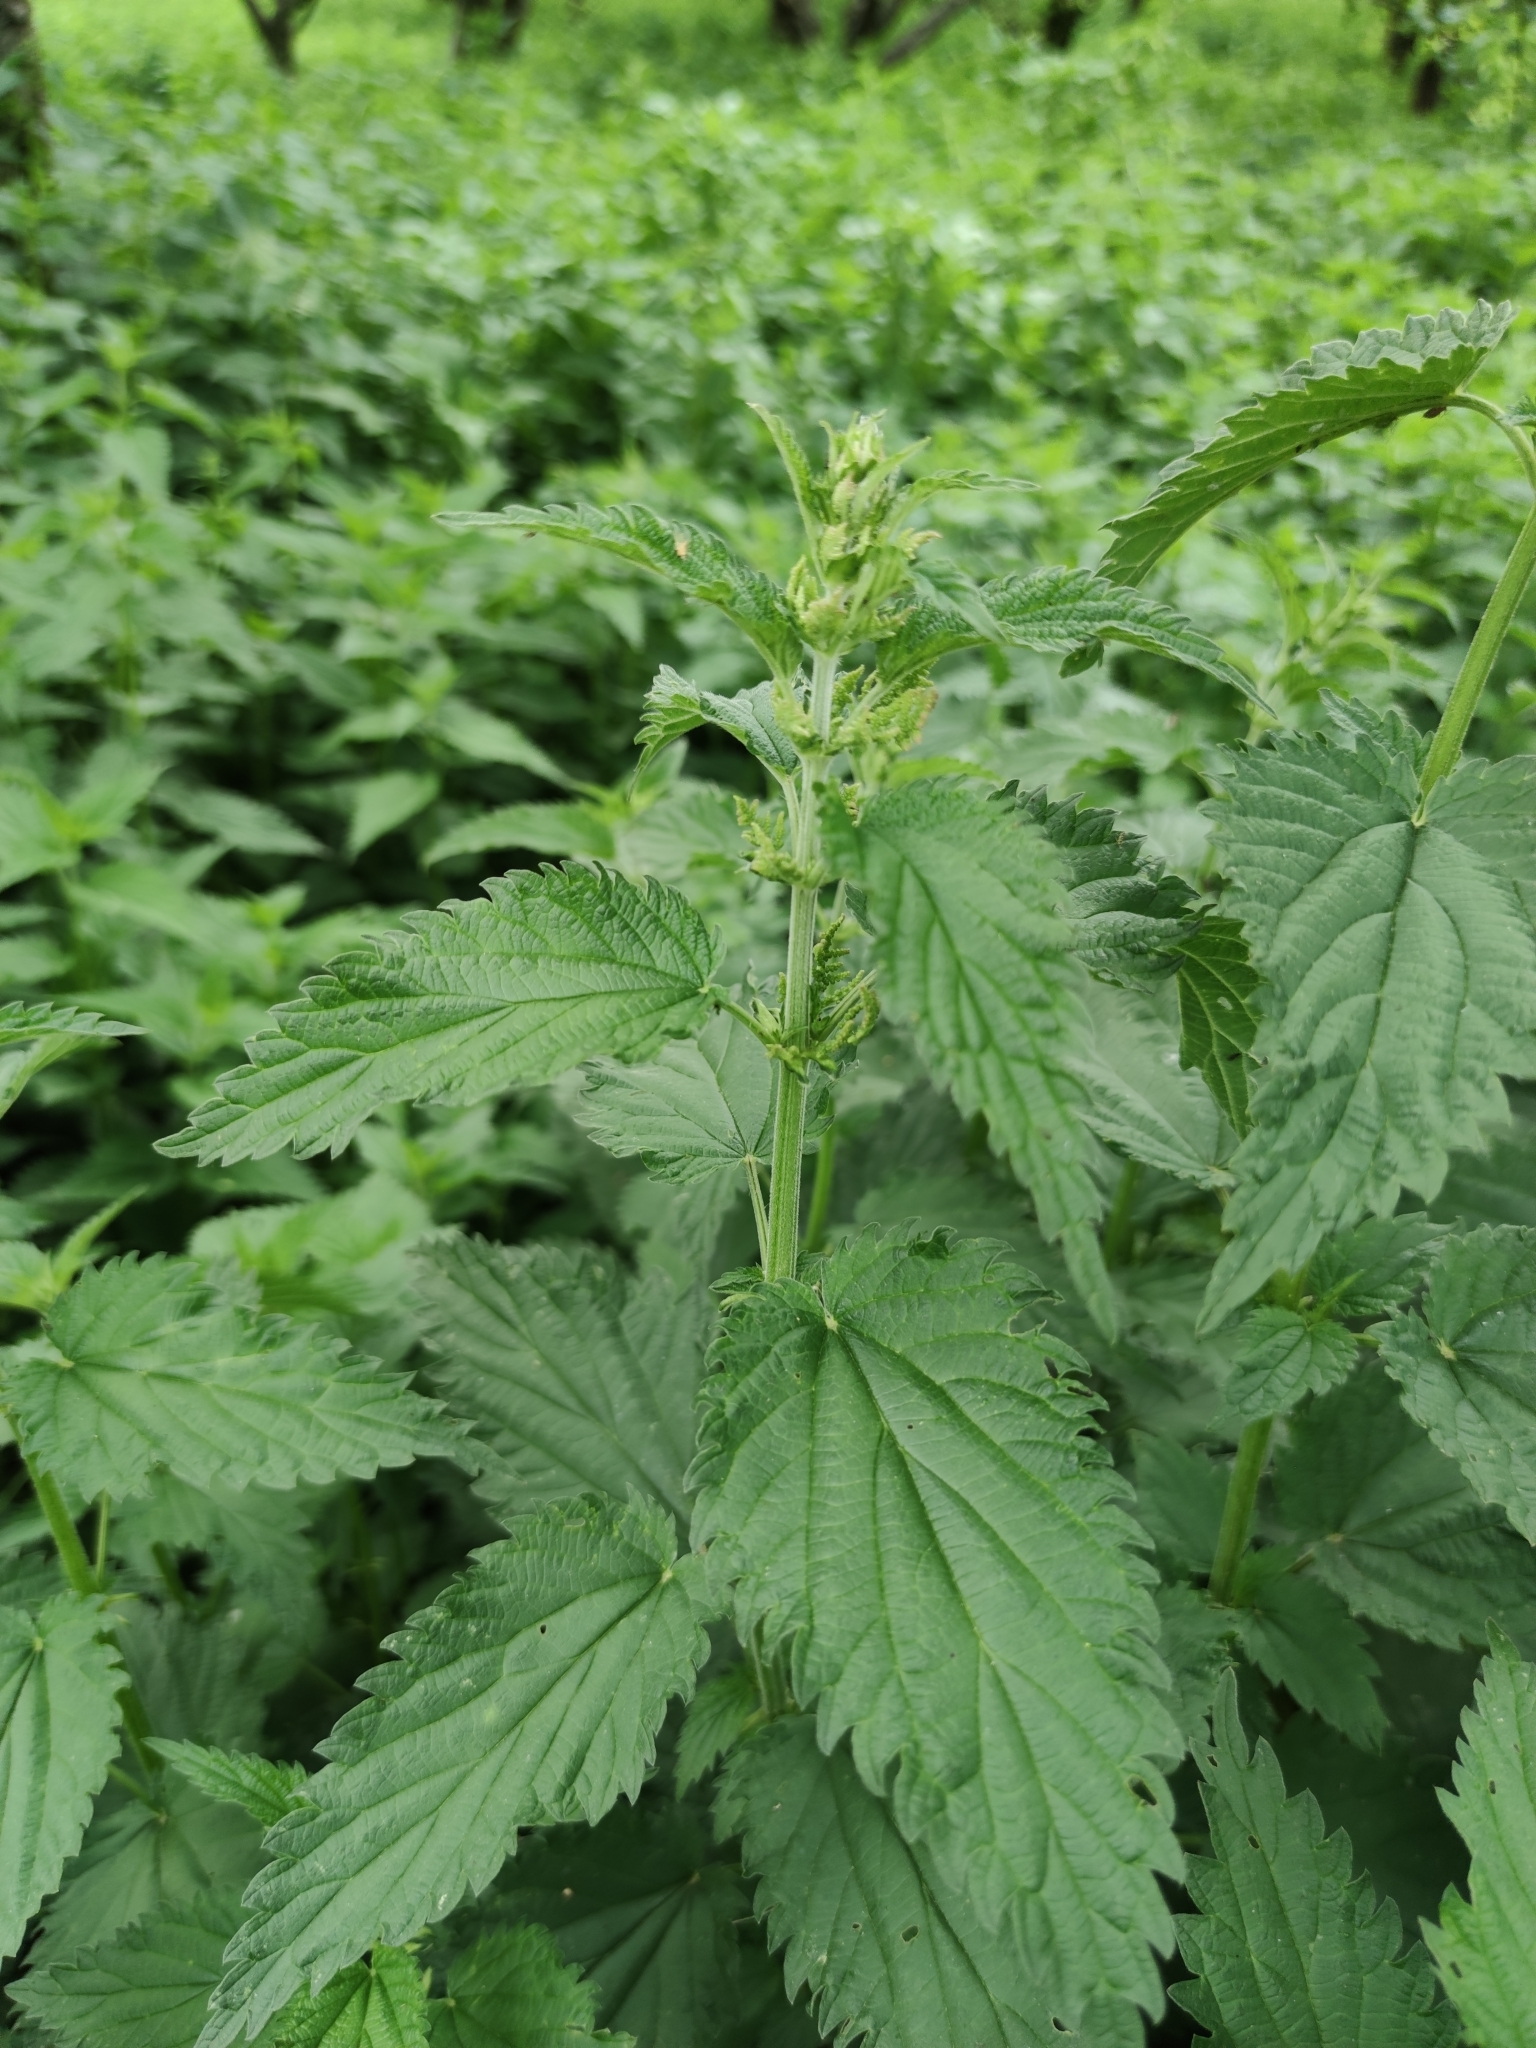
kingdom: Plantae
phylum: Tracheophyta
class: Magnoliopsida
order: Rosales
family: Urticaceae
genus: Urtica
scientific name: Urtica dioica
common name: Common nettle
